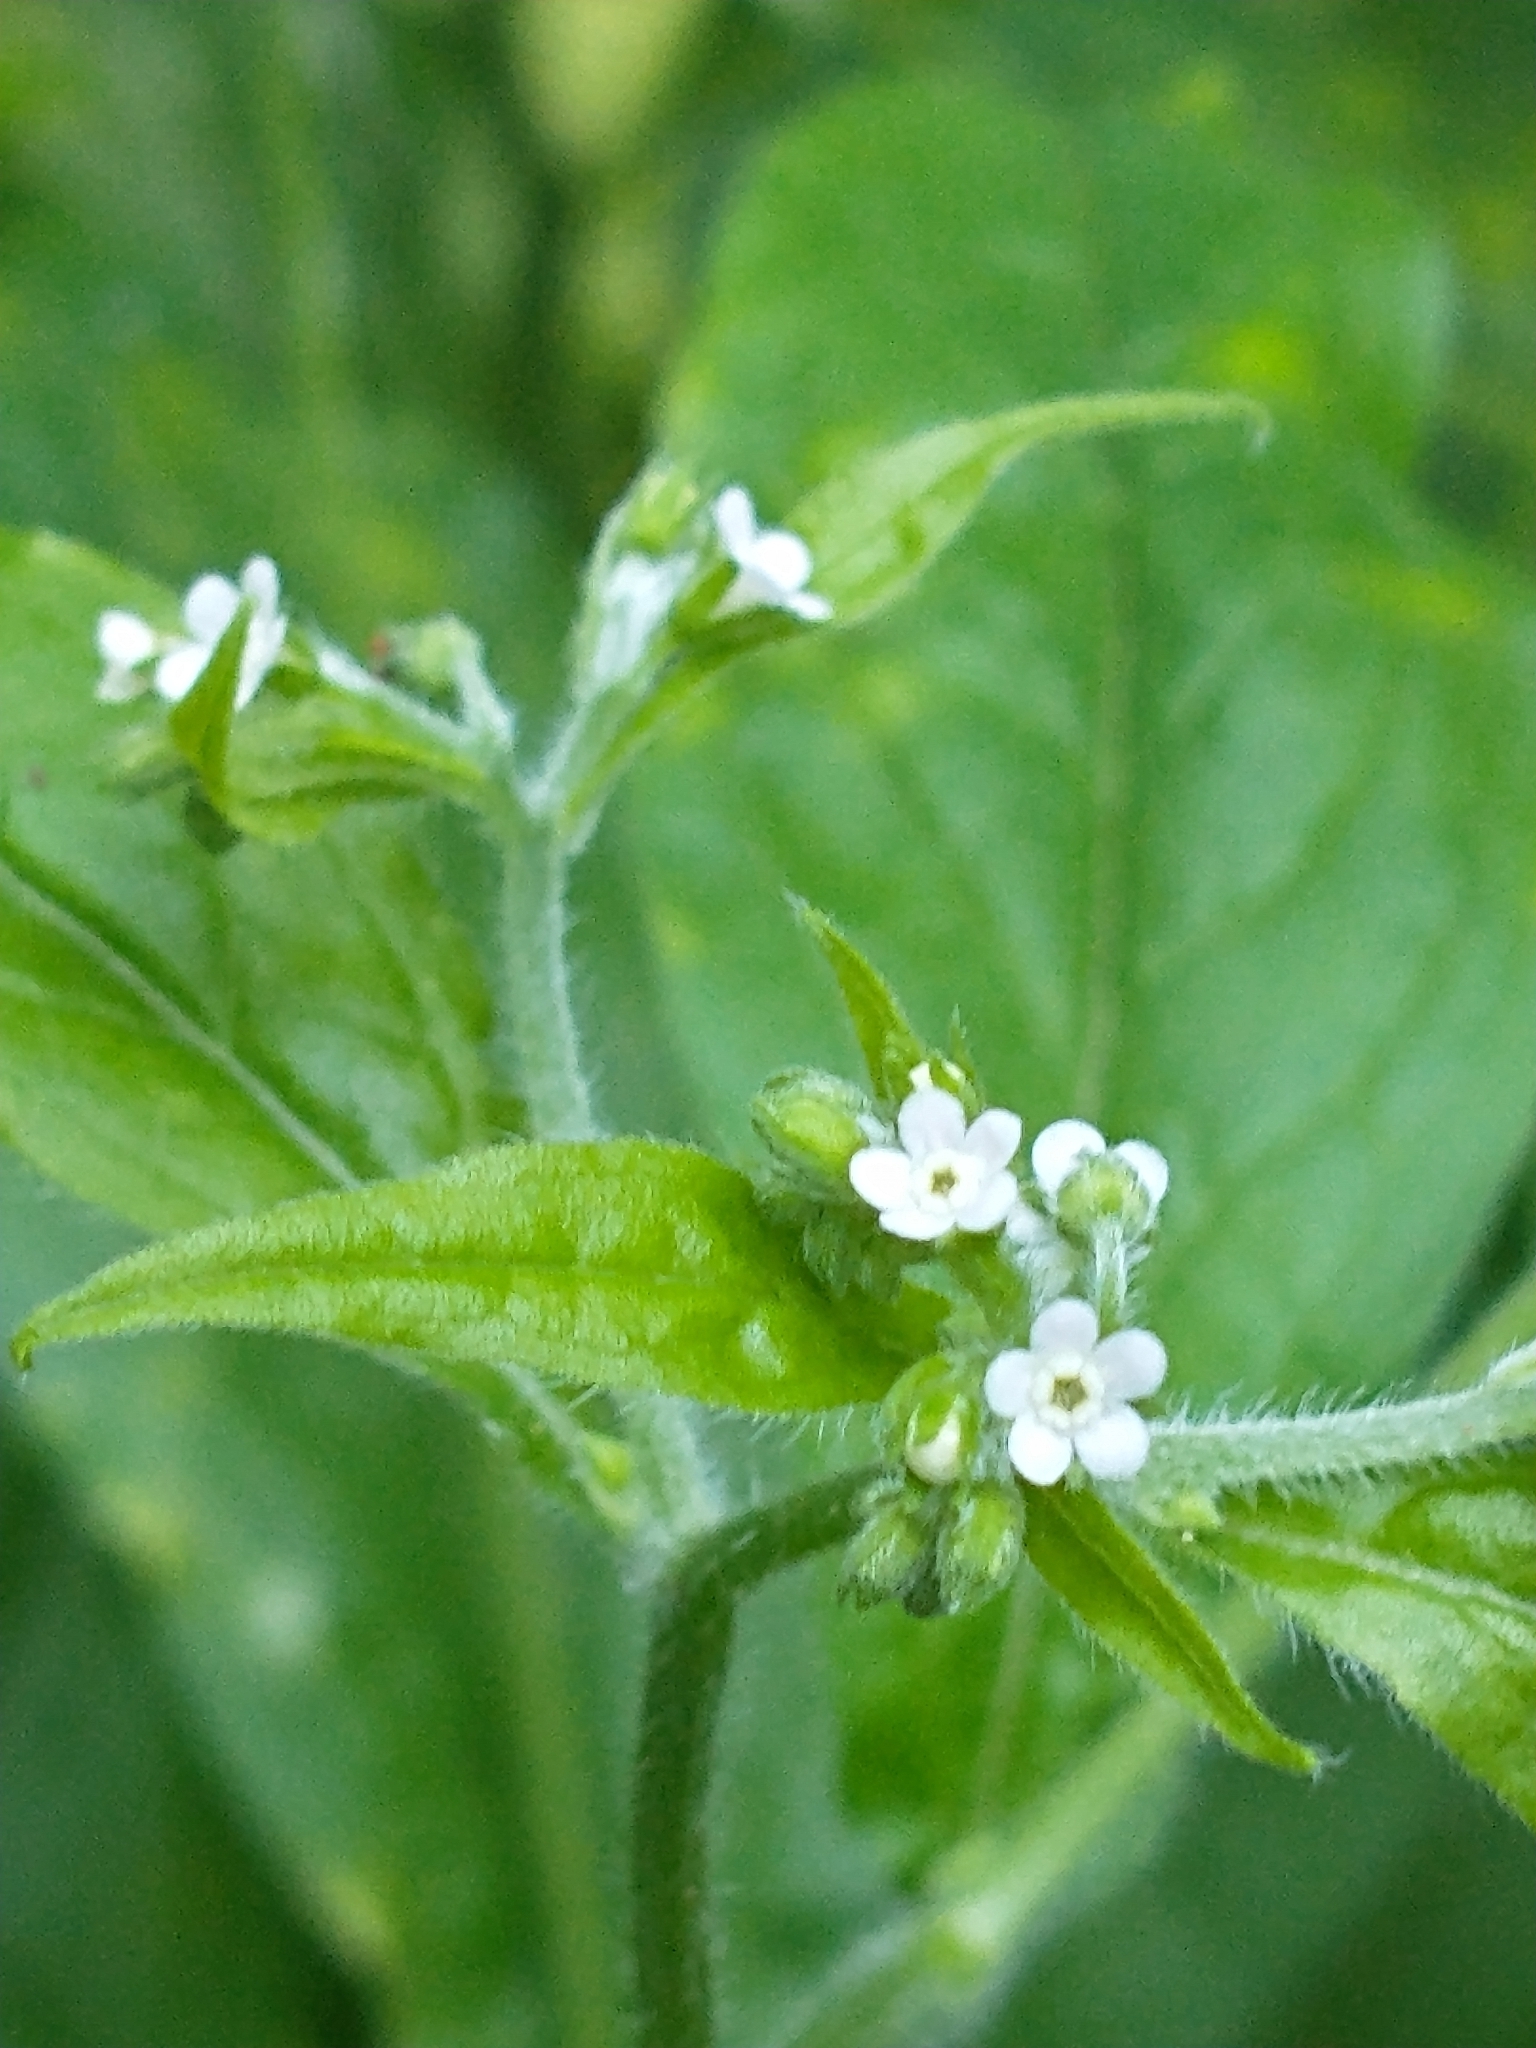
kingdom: Plantae
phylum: Tracheophyta
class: Magnoliopsida
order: Boraginales
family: Boraginaceae
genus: Hackelia
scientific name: Hackelia virginiana
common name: Beggar's-lice
